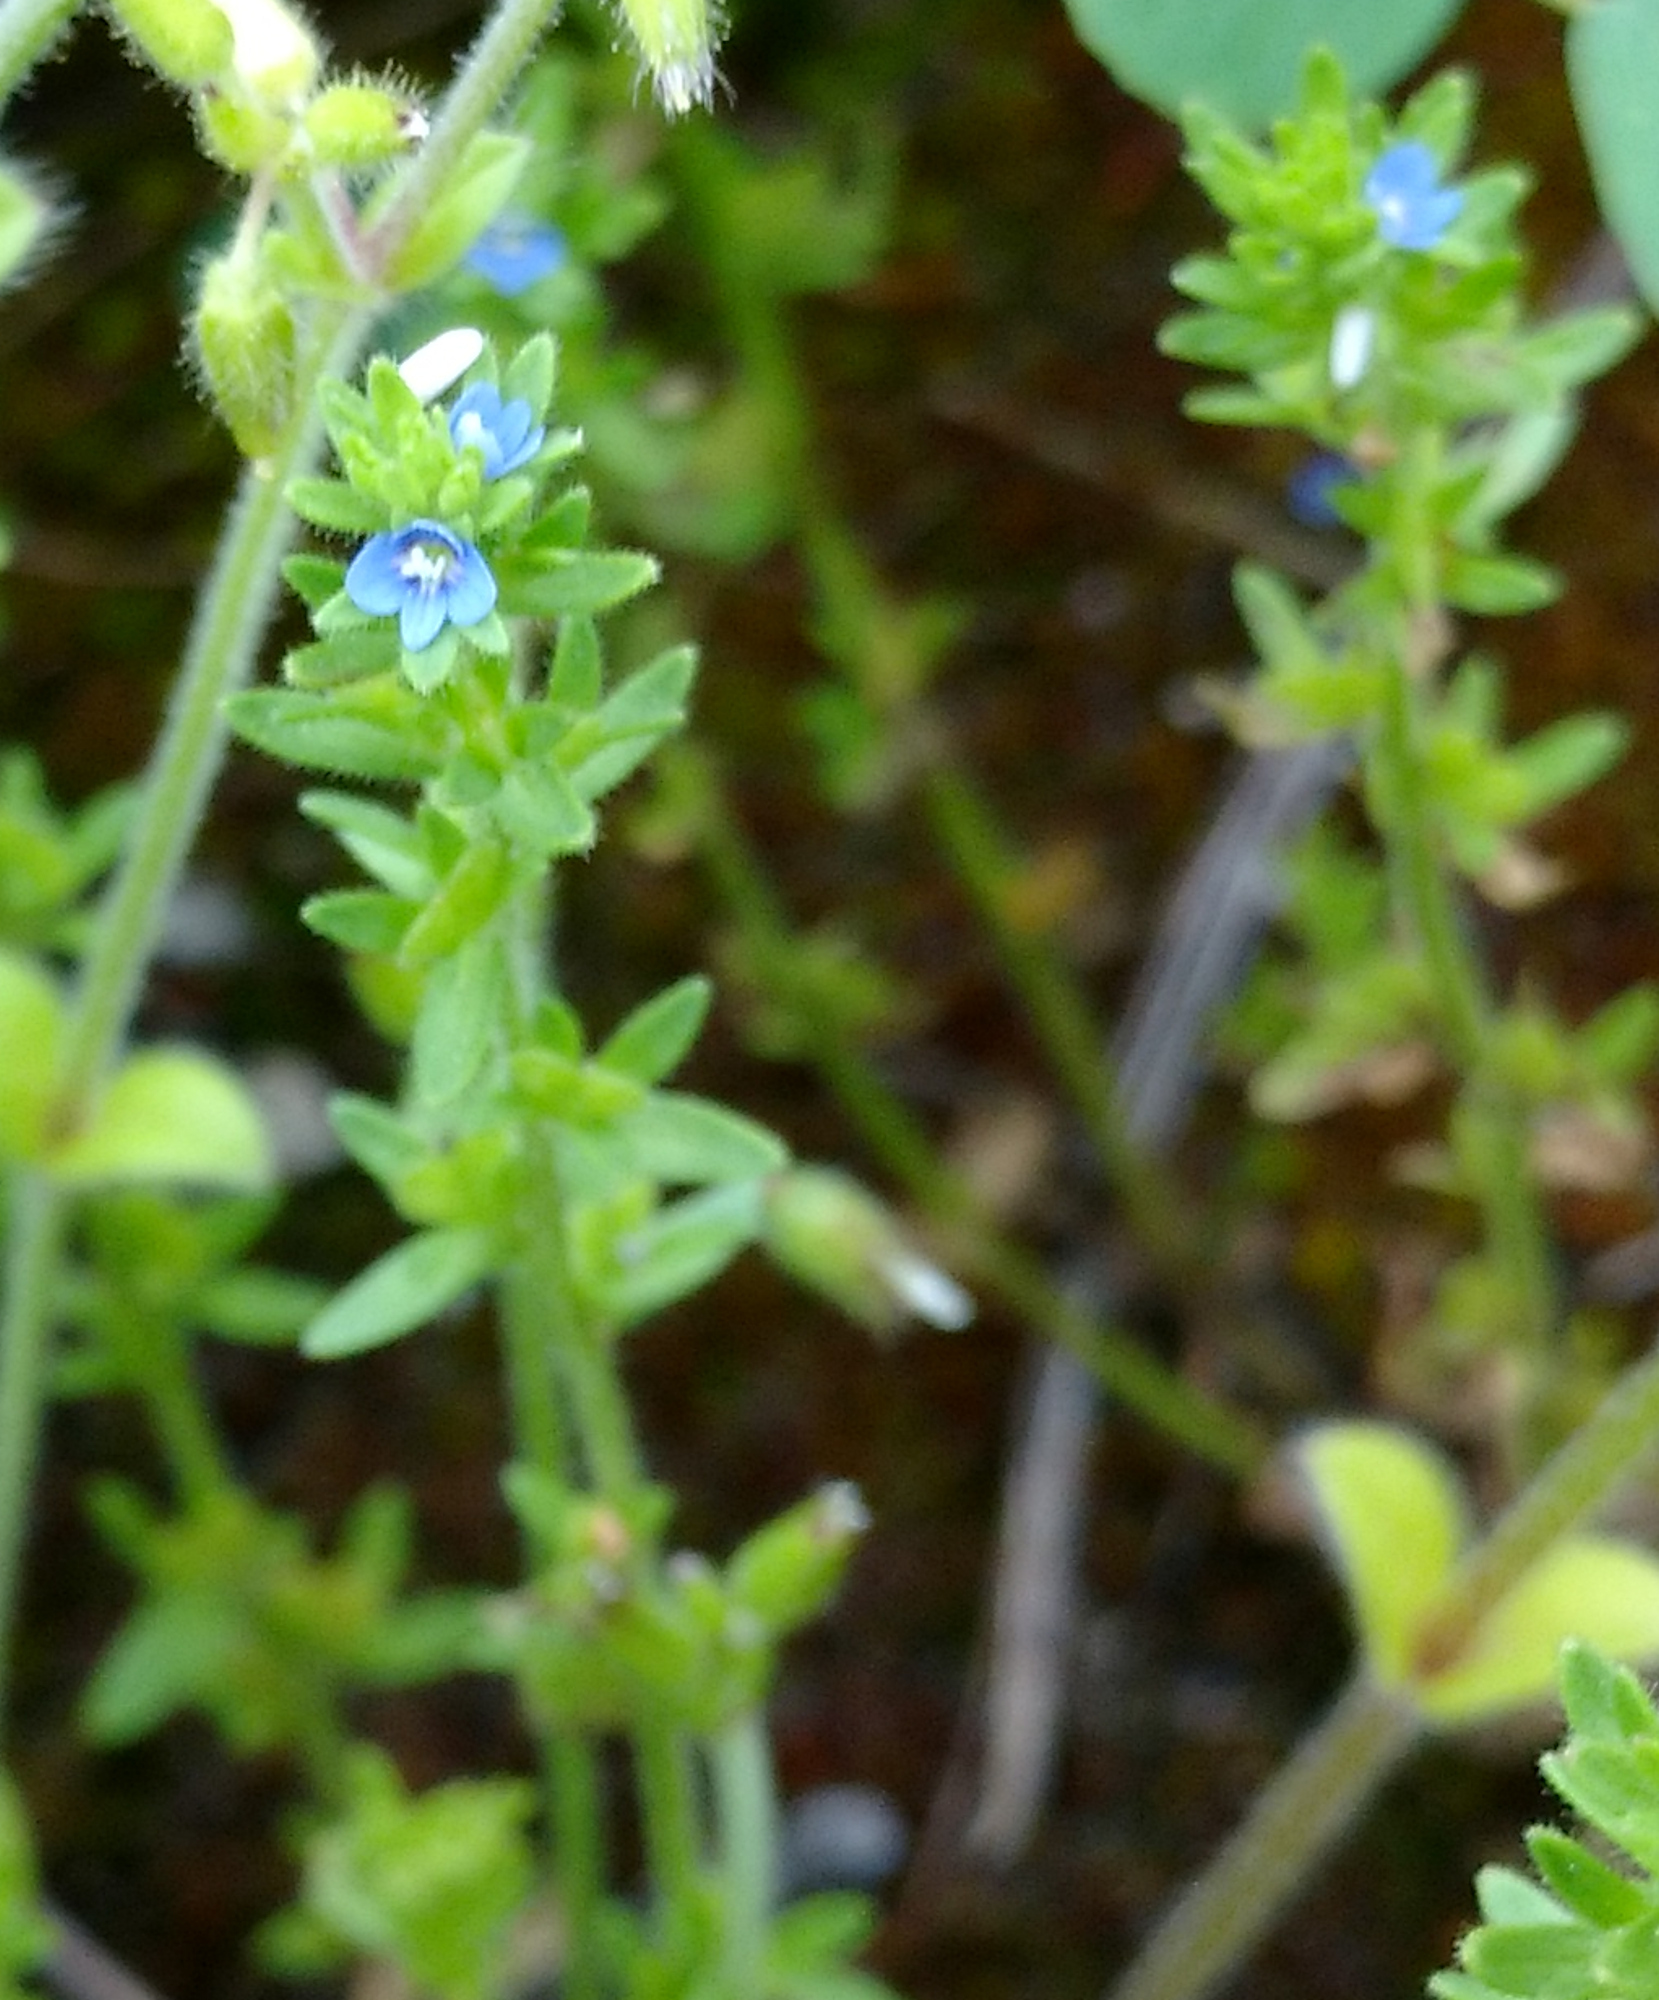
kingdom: Plantae
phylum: Tracheophyta
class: Magnoliopsida
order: Lamiales
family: Plantaginaceae
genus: Veronica
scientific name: Veronica arvensis
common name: Corn speedwell
